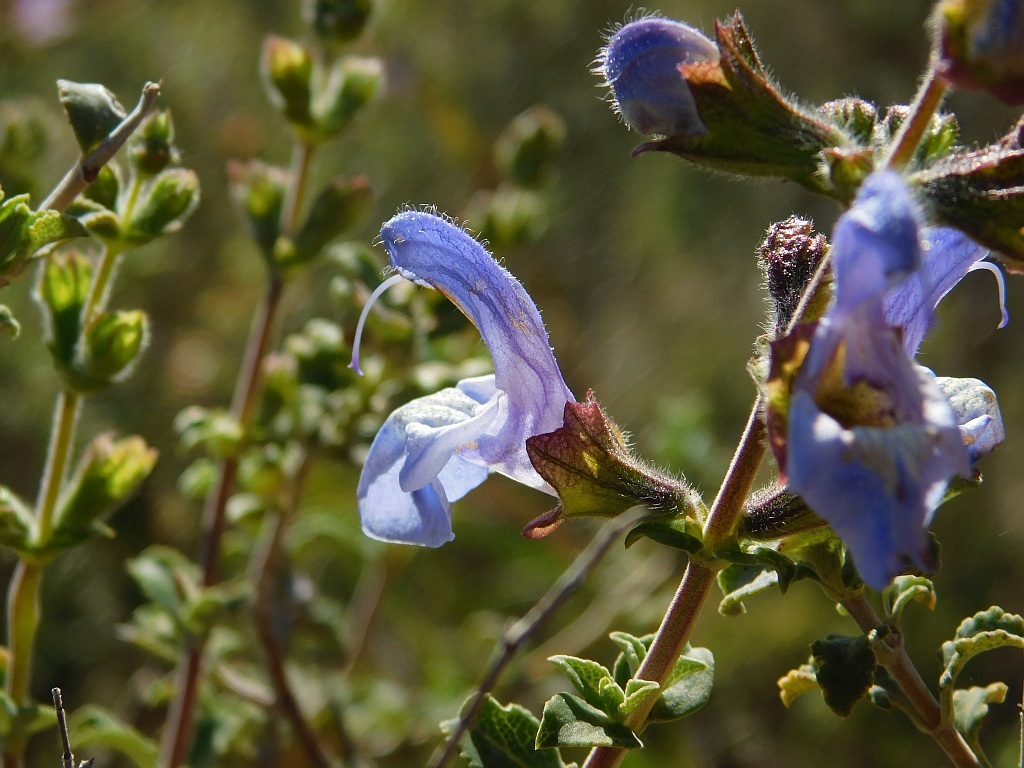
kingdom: Plantae
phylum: Tracheophyta
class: Magnoliopsida
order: Lamiales
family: Lamiaceae
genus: Salvia
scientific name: Salvia africana
